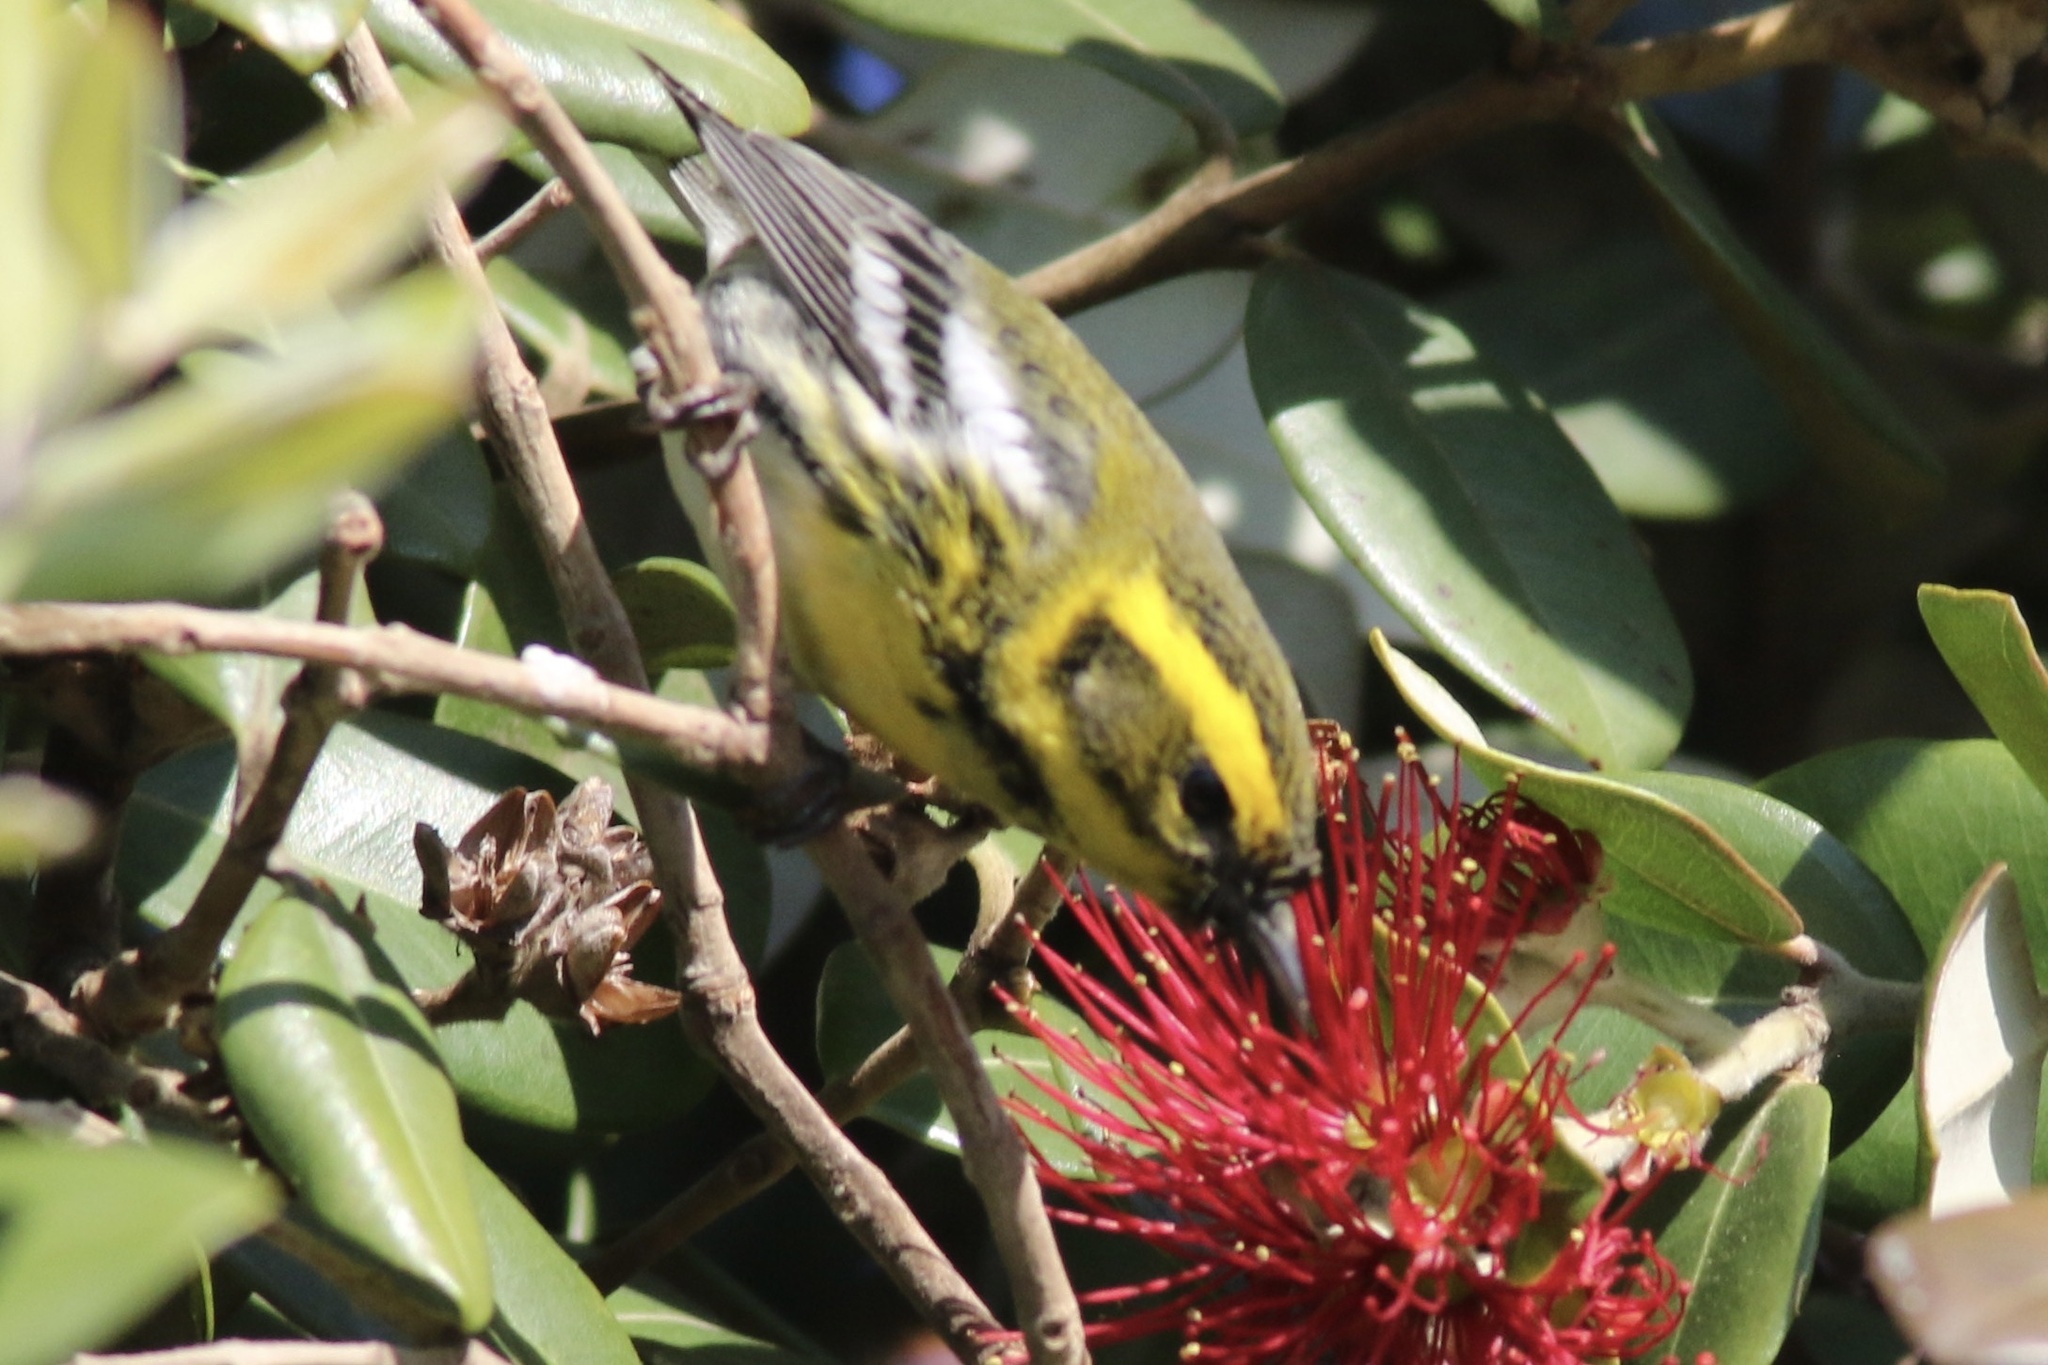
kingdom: Animalia
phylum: Chordata
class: Aves
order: Passeriformes
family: Parulidae
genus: Setophaga
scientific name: Setophaga townsendi
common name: Townsend's warbler
